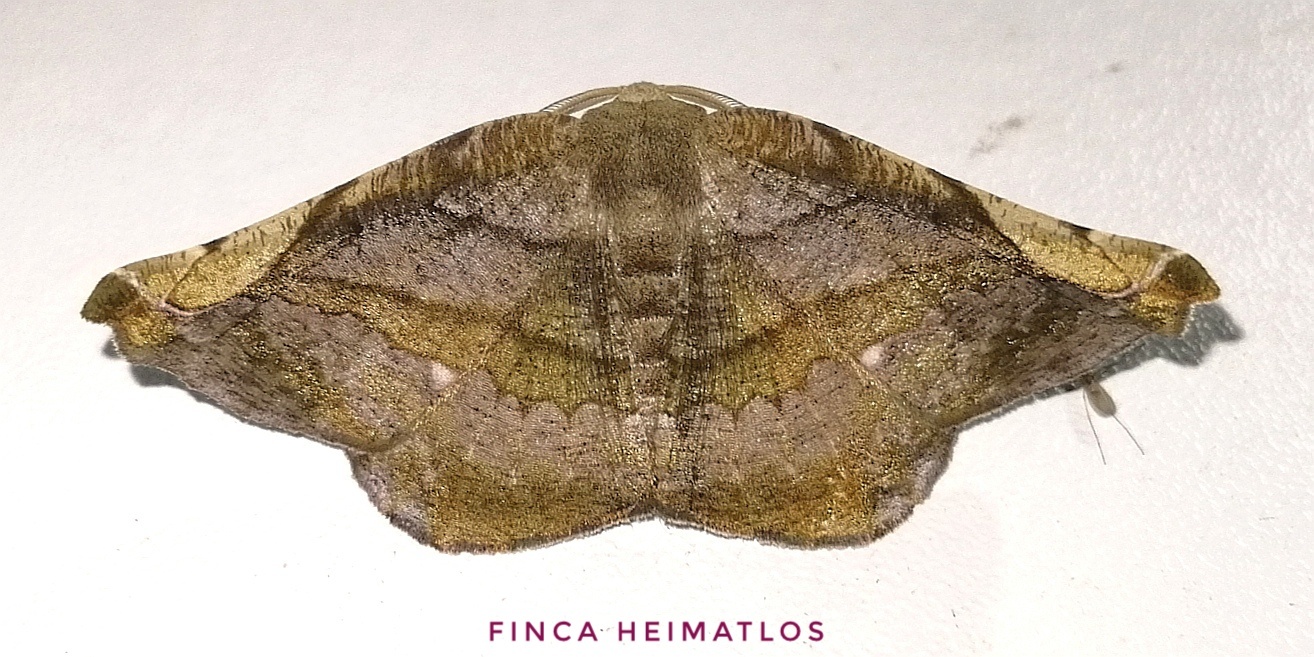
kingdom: Animalia
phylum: Arthropoda
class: Insecta
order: Lepidoptera
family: Geometridae
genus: Hygrochroma
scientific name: Hygrochroma olivinaria
